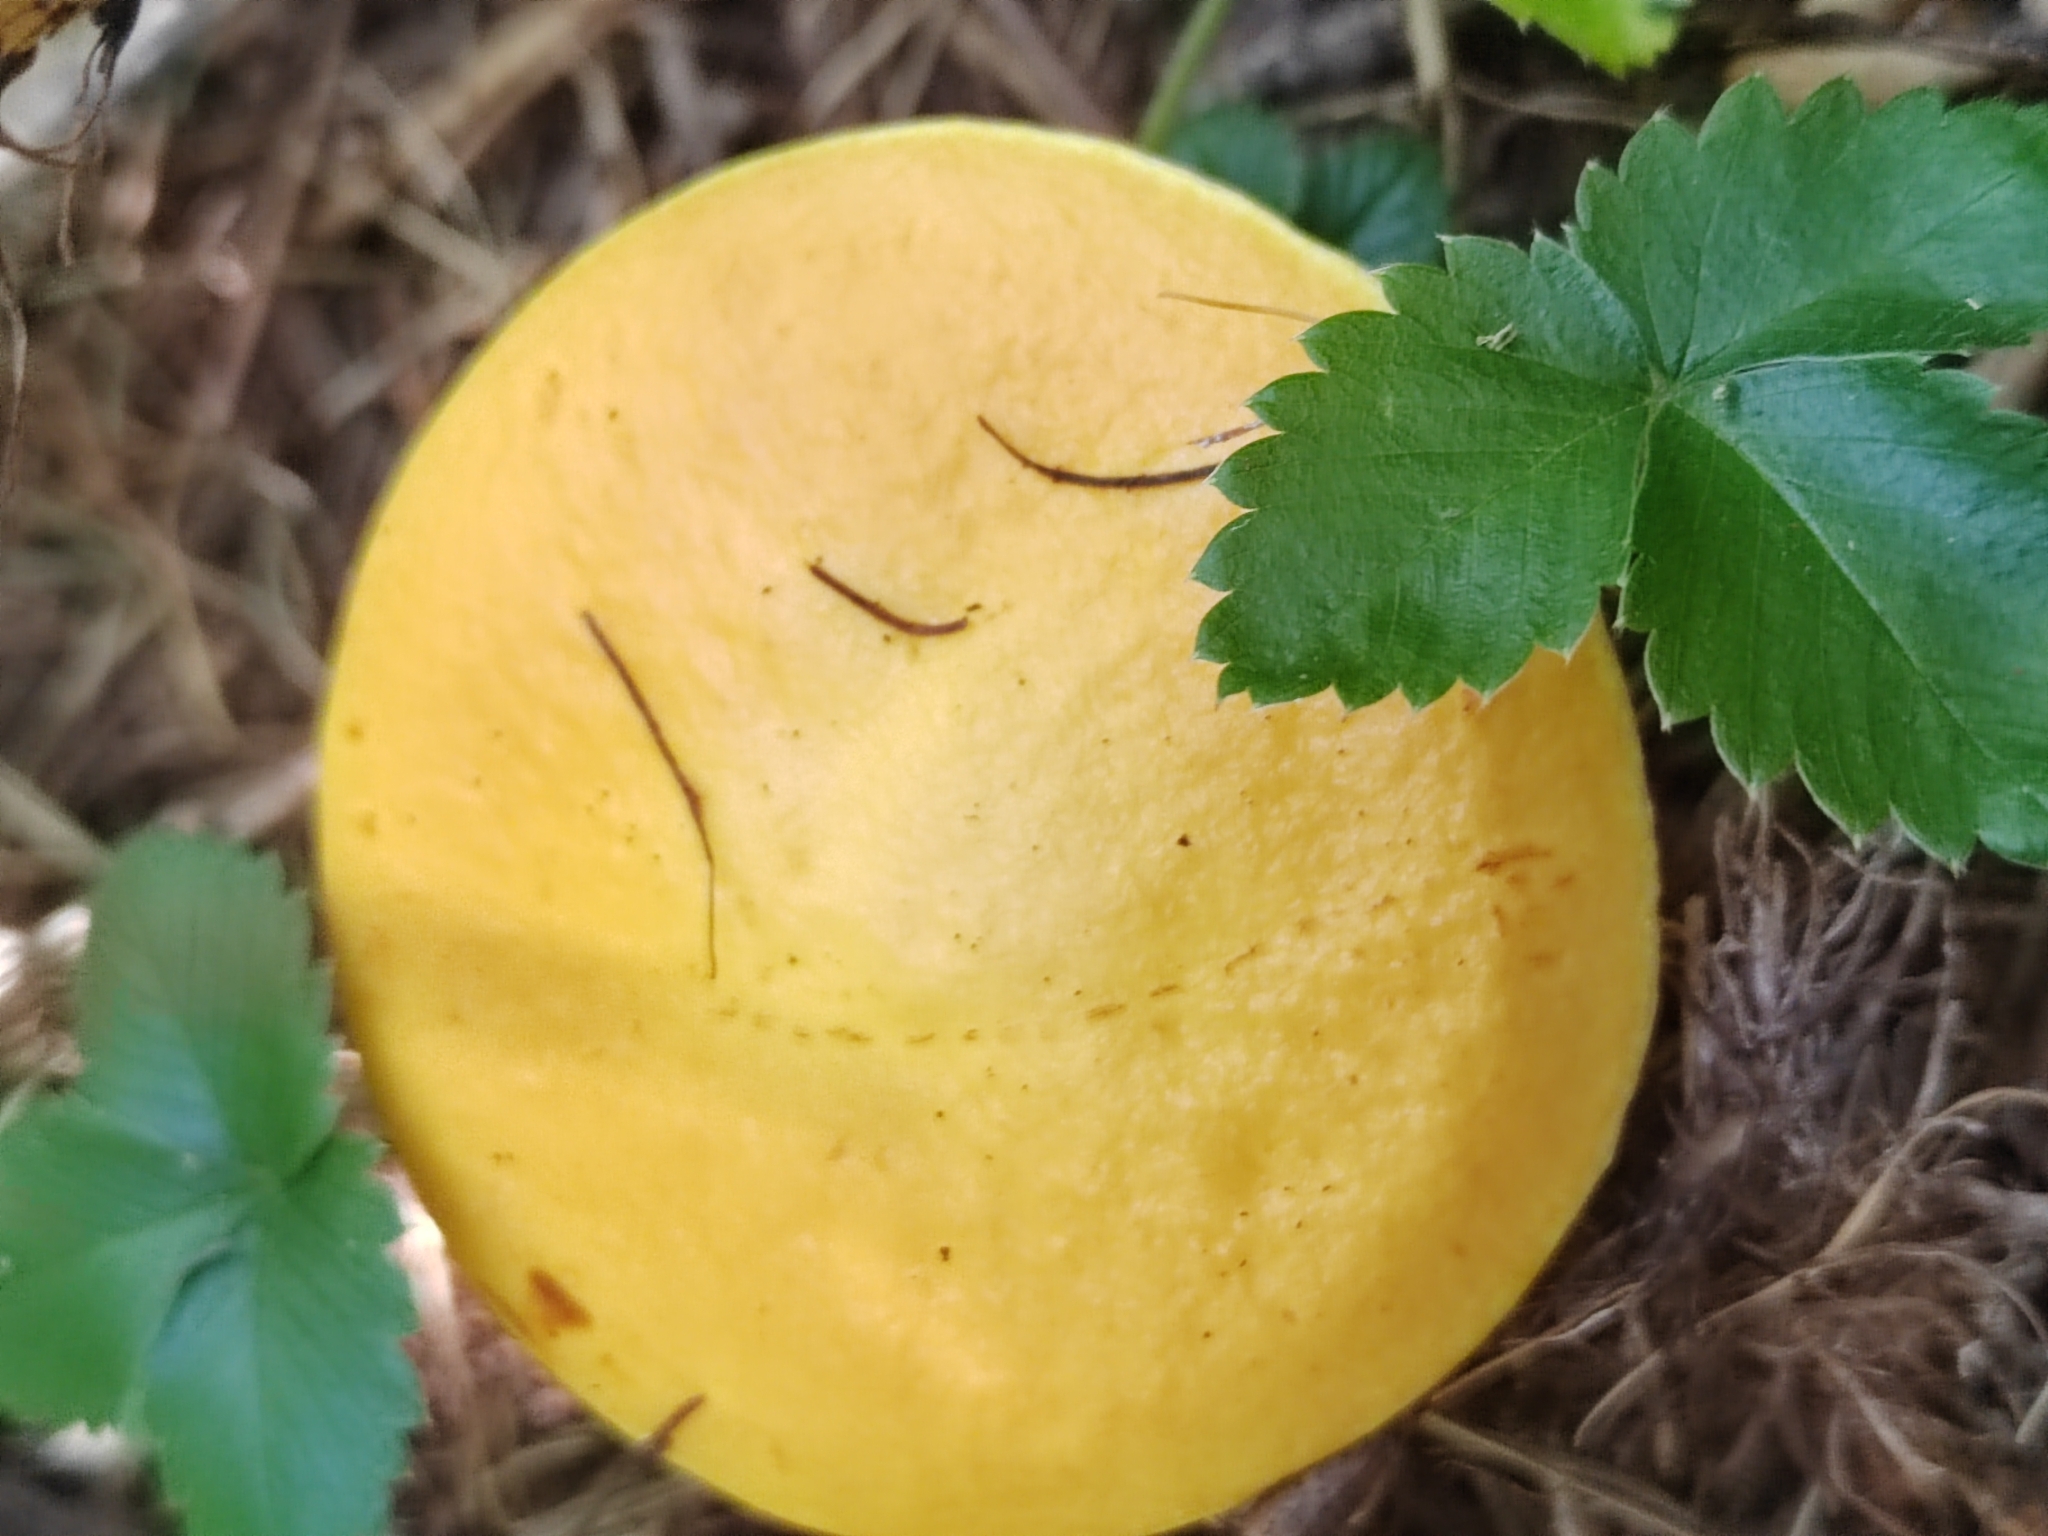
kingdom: Fungi
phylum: Basidiomycota
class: Agaricomycetes
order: Boletales
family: Suillaceae
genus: Suillus
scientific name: Suillus grevillei
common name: Larch bolete
